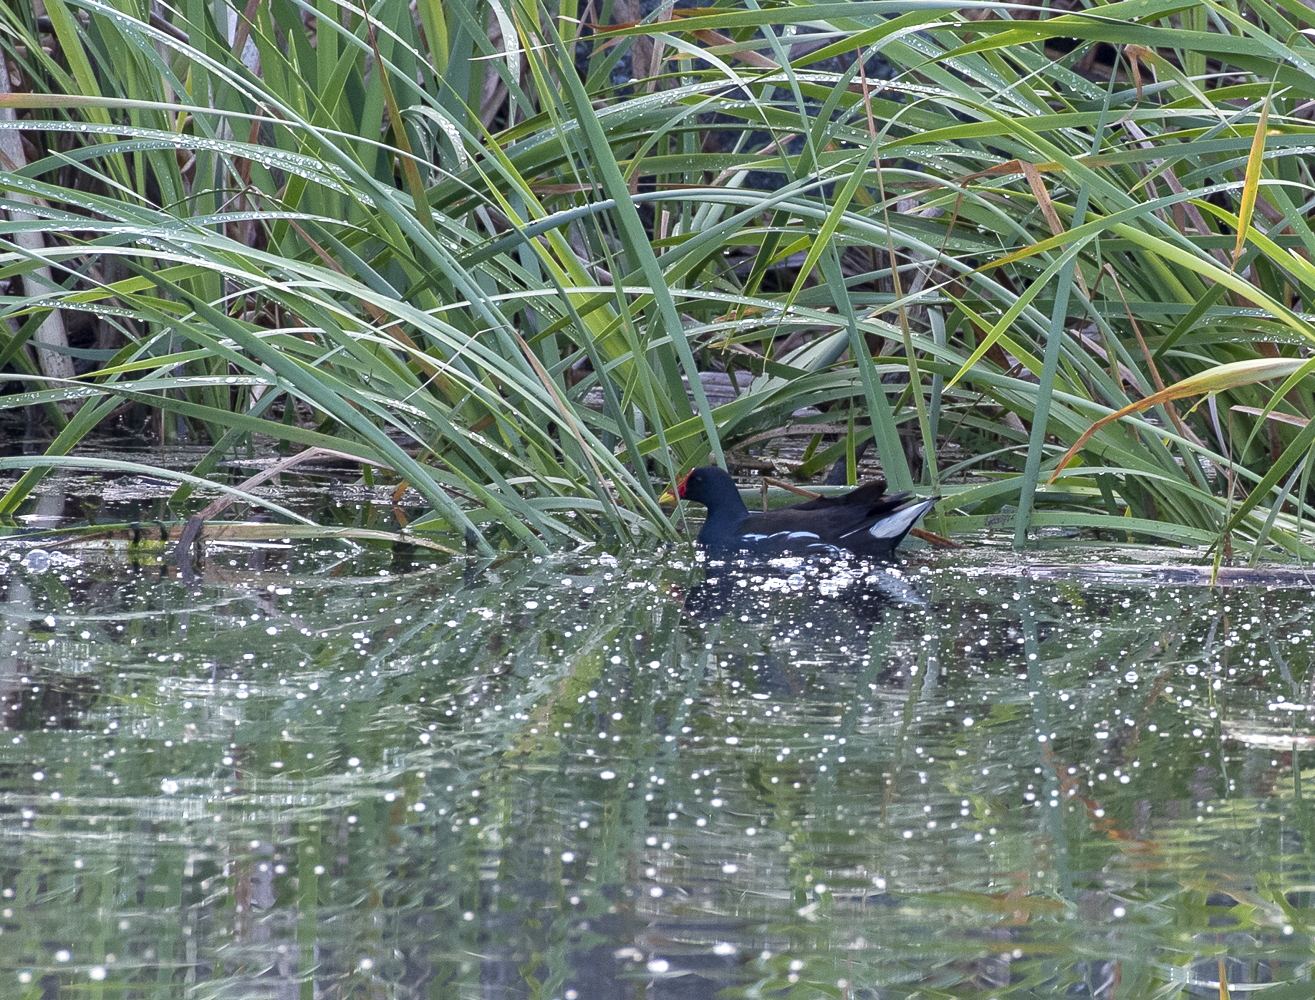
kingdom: Animalia
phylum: Chordata
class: Aves
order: Gruiformes
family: Rallidae
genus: Gallinula
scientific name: Gallinula chloropus
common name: Common moorhen
